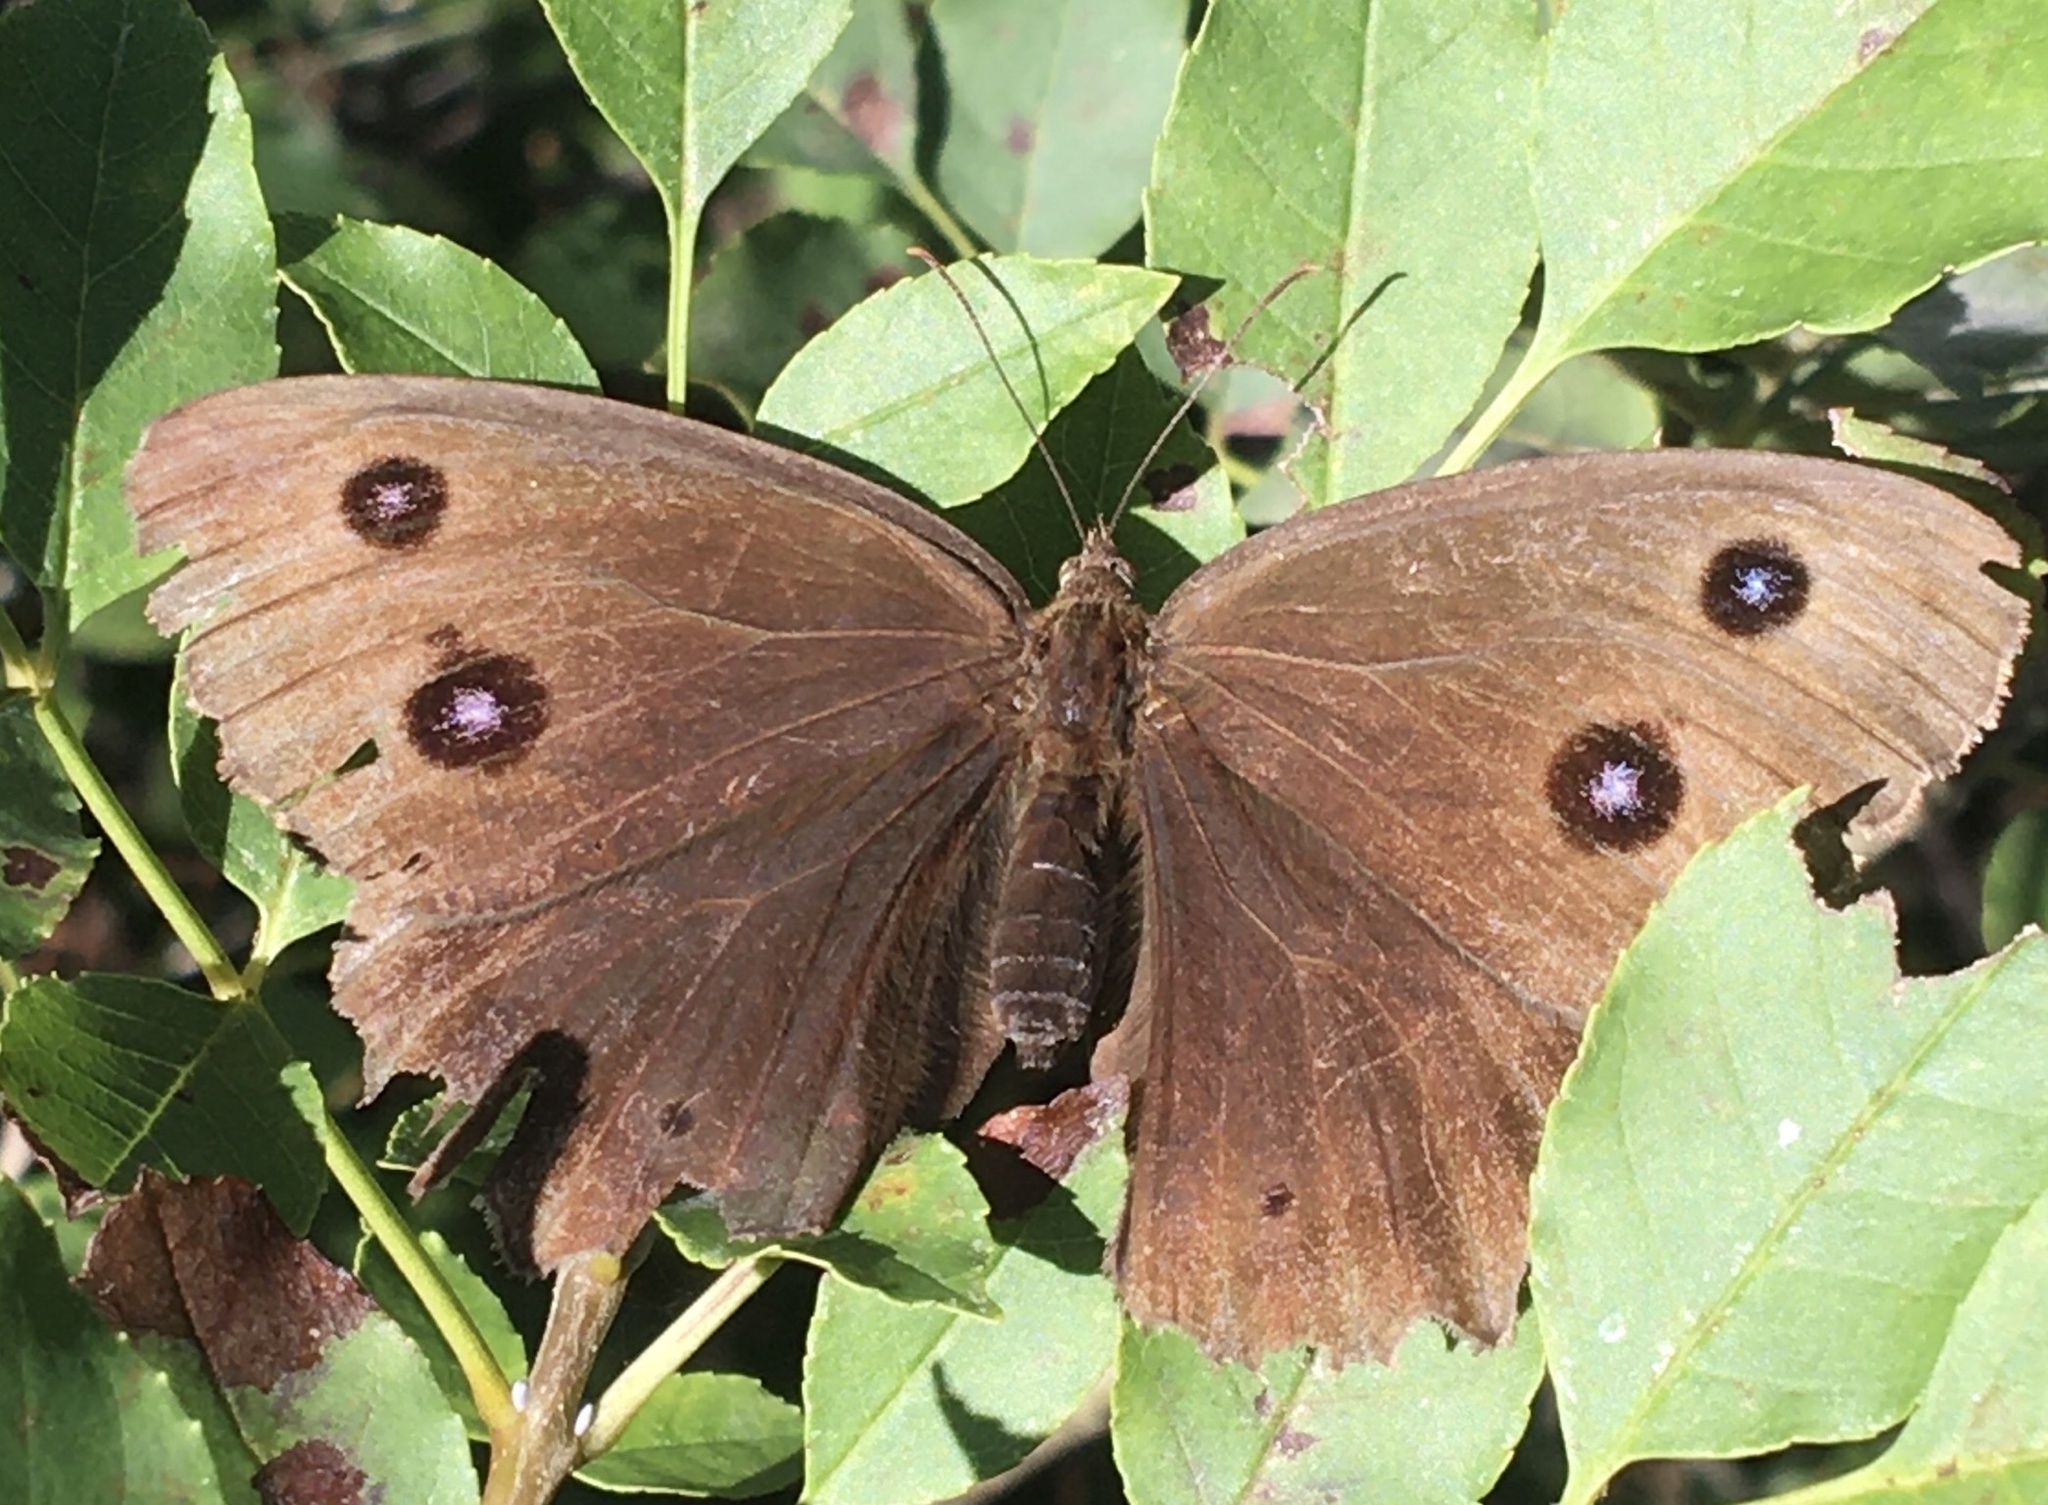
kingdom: Animalia
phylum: Arthropoda
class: Insecta
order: Lepidoptera
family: Nymphalidae
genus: Minois
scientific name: Minois dryas
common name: Dryad
